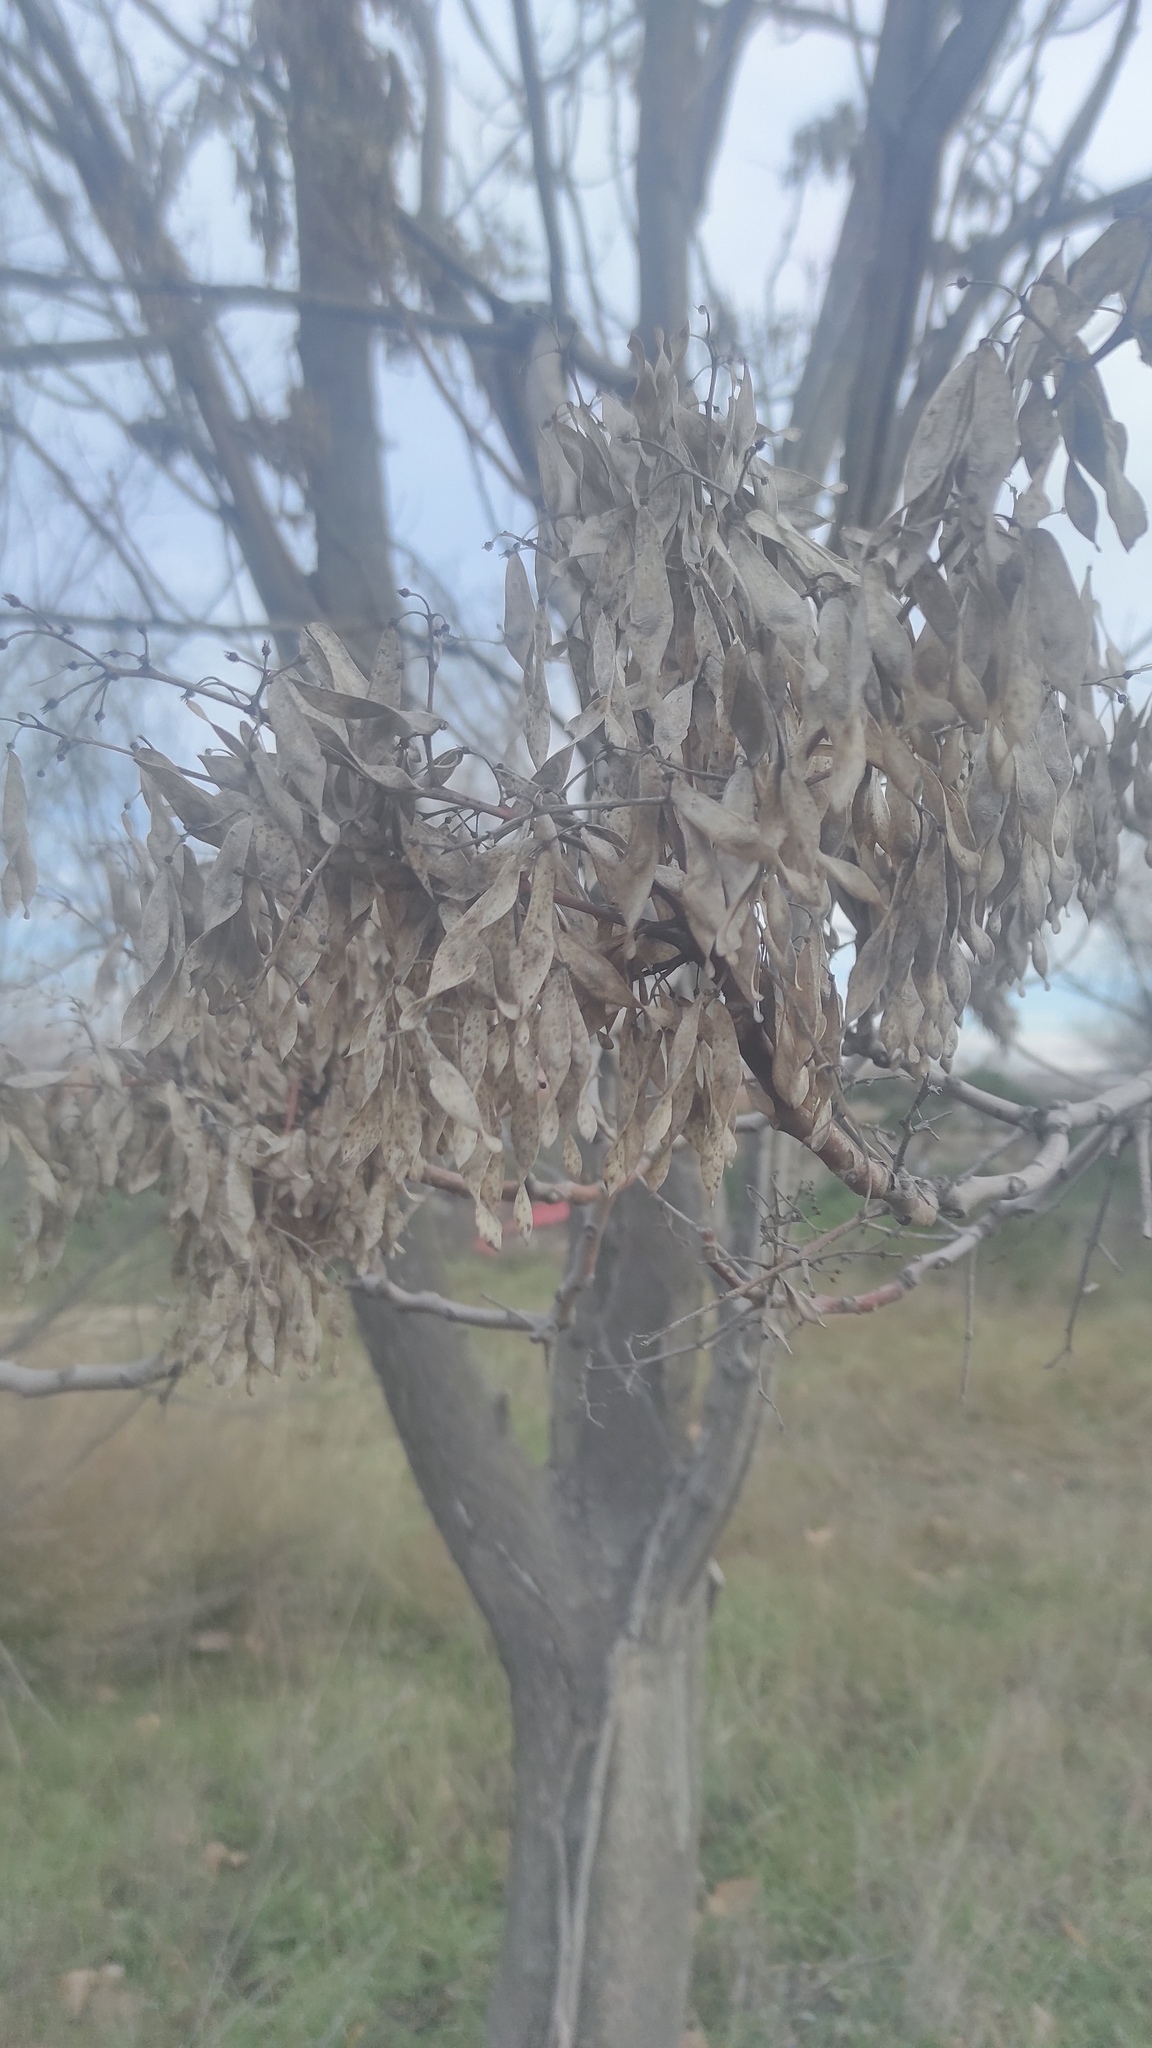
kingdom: Plantae
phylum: Tracheophyta
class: Magnoliopsida
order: Sapindales
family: Simaroubaceae
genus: Ailanthus
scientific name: Ailanthus altissima
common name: Tree-of-heaven
